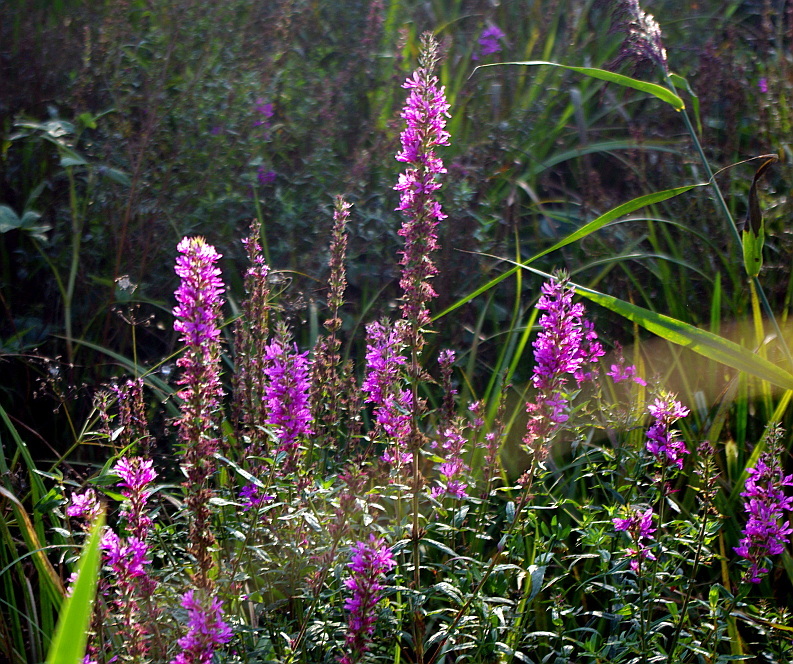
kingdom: Plantae
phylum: Tracheophyta
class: Magnoliopsida
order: Myrtales
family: Lythraceae
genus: Lythrum
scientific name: Lythrum salicaria
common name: Purple loosestrife
